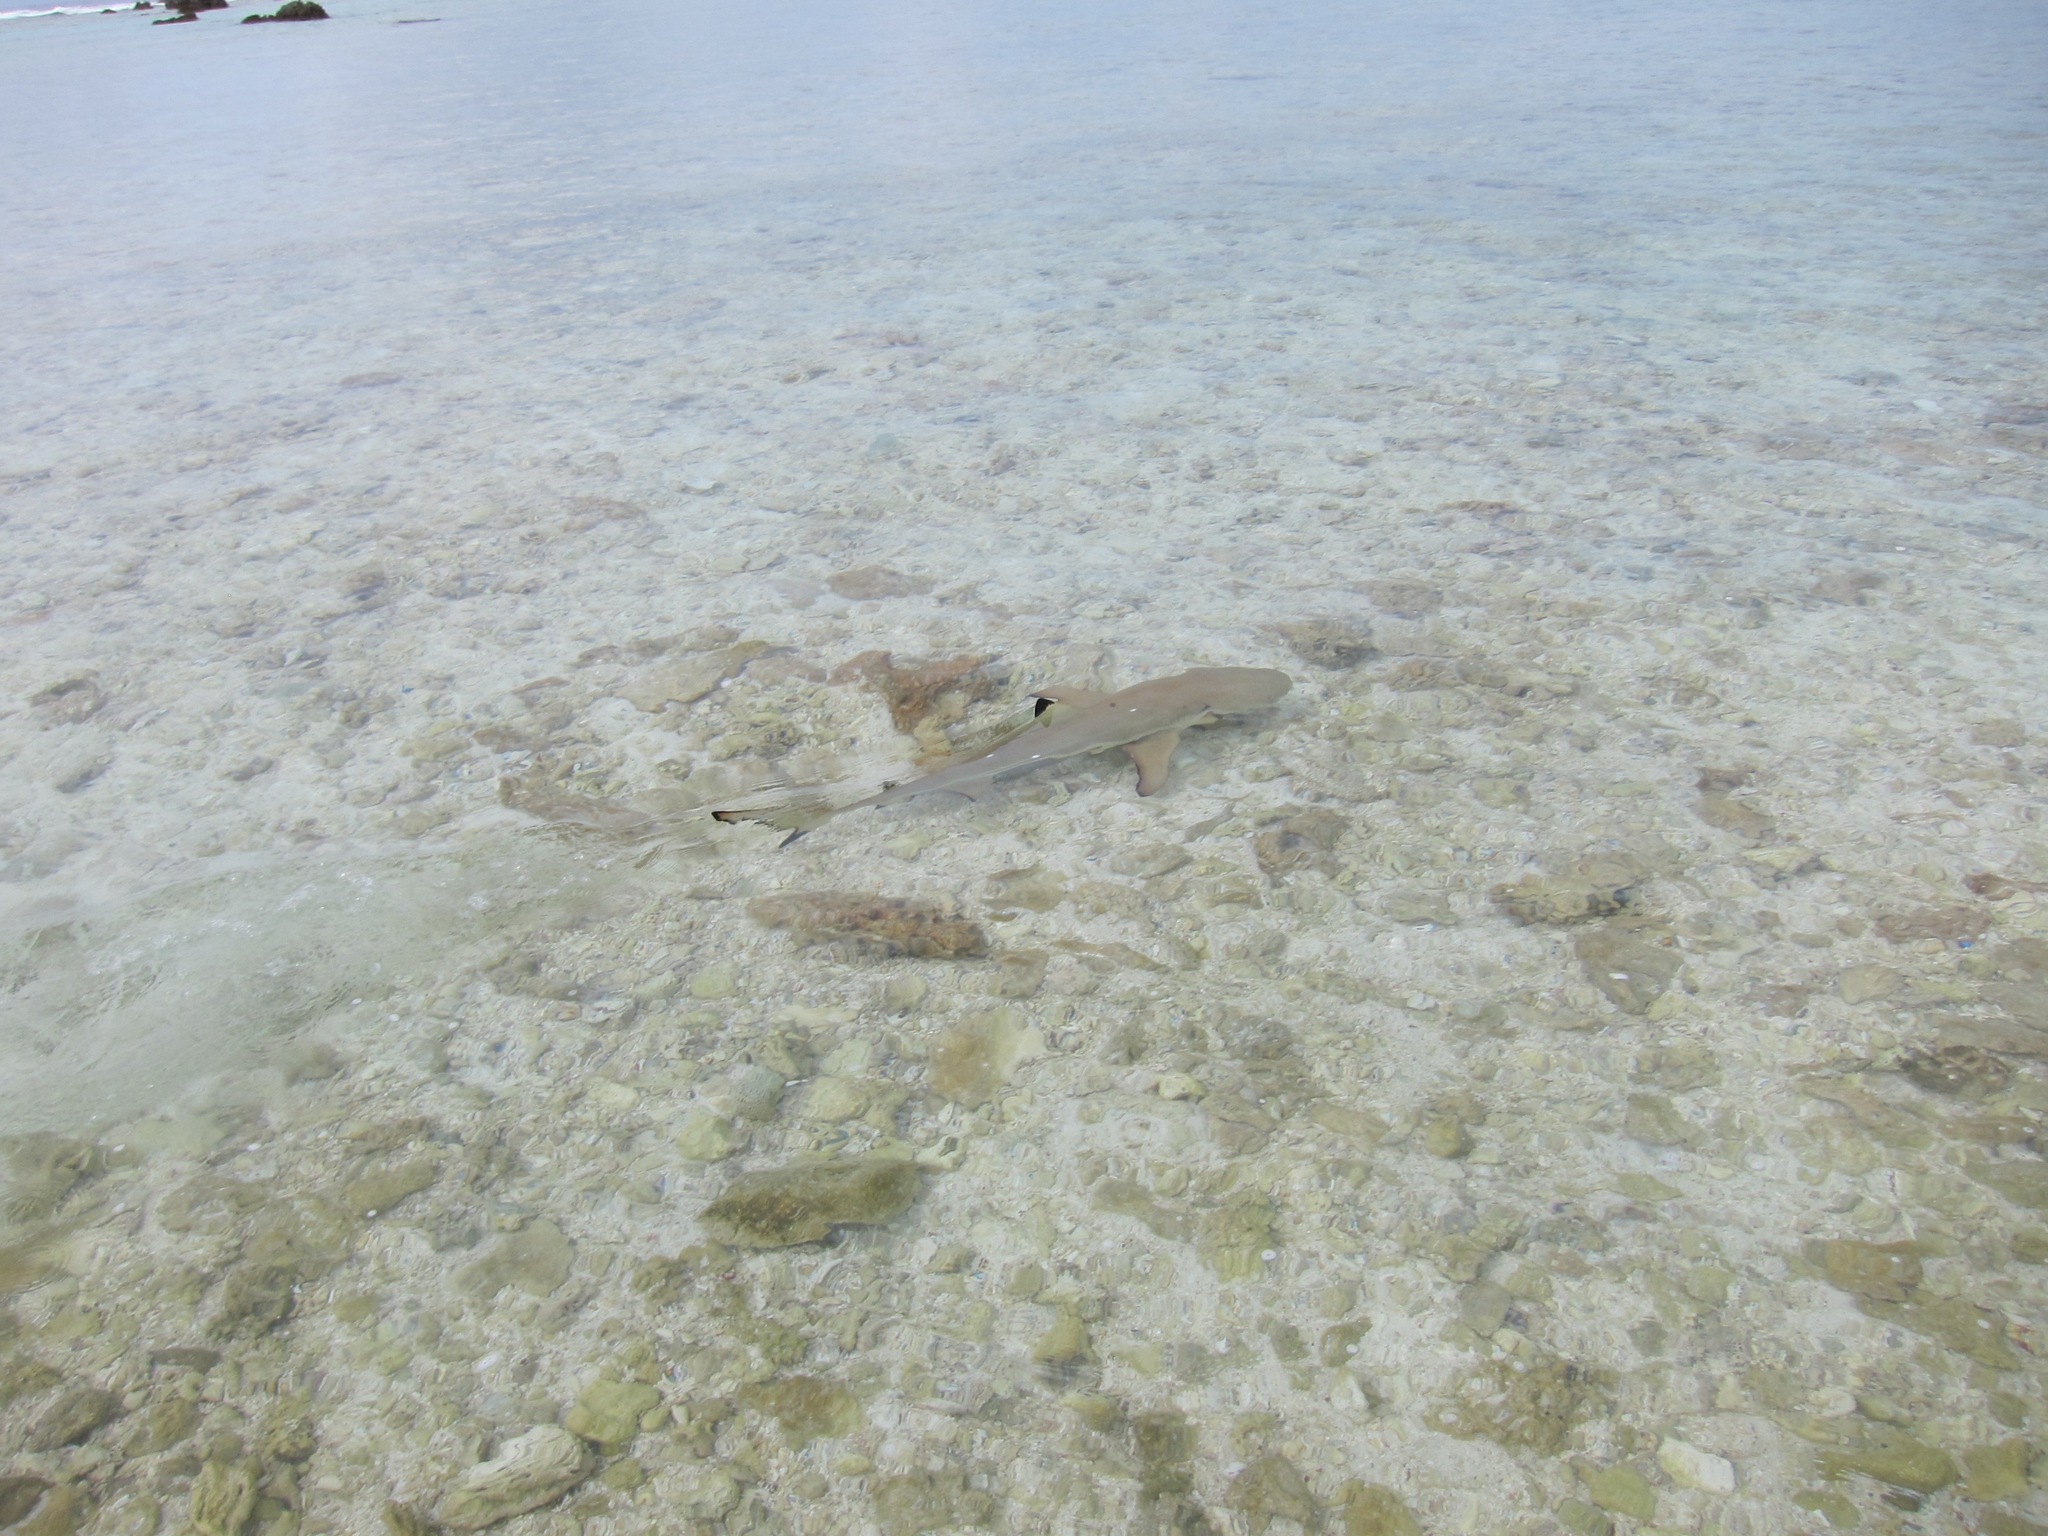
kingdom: Animalia
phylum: Chordata
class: Elasmobranchii
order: Carcharhiniformes
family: Carcharhinidae
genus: Carcharhinus
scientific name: Carcharhinus melanopterus
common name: Blacktip reef shark
